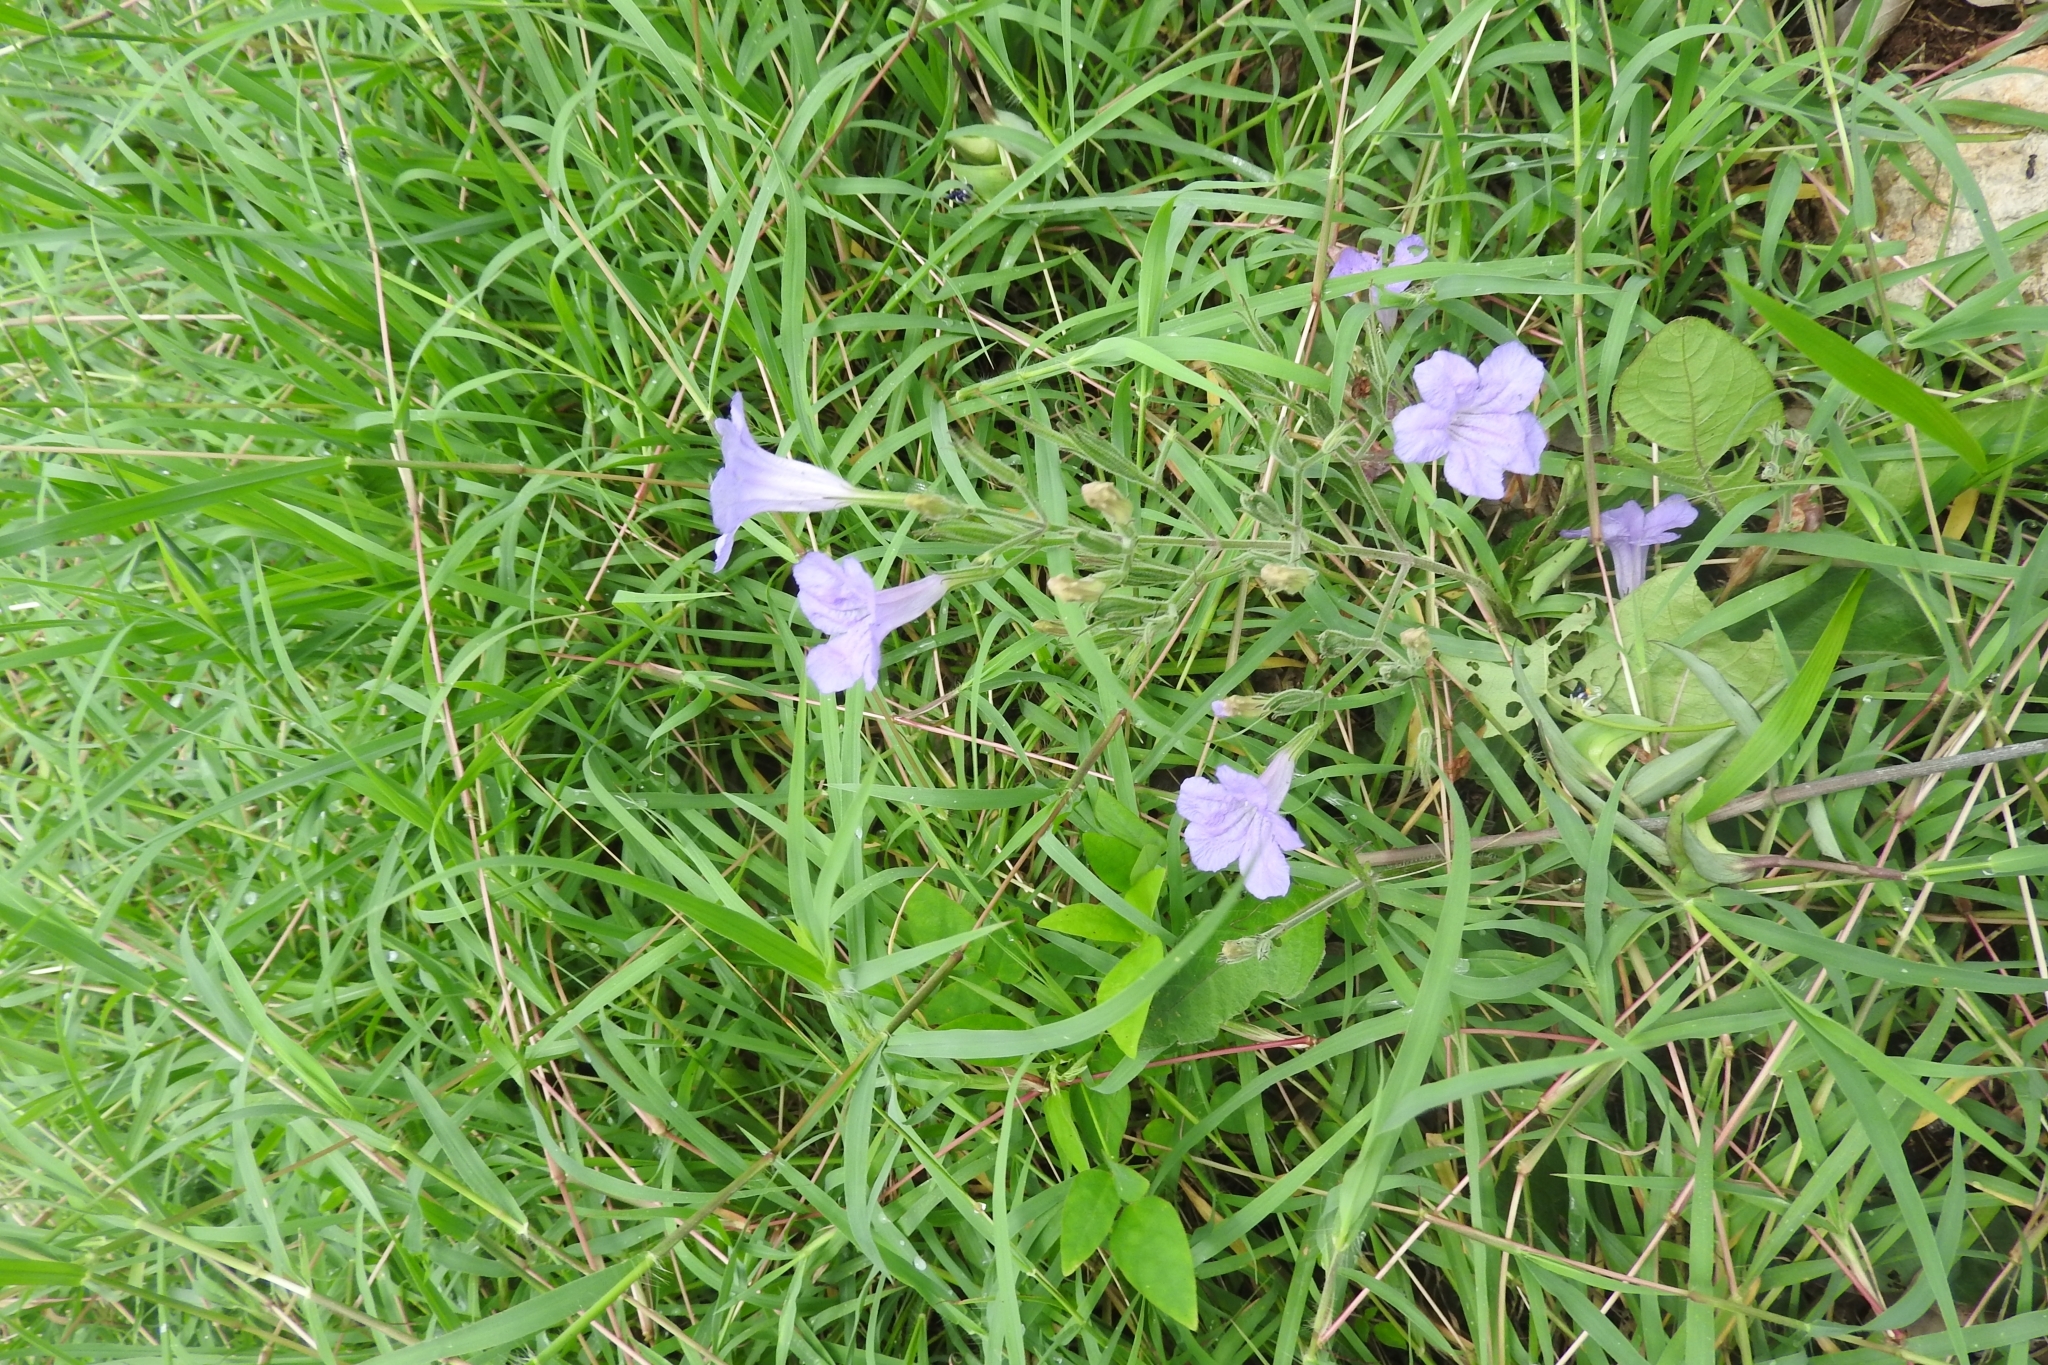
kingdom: Plantae
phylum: Tracheophyta
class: Magnoliopsida
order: Lamiales
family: Acanthaceae
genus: Ruellia
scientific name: Ruellia ciliatiflora
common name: Hairyflower wild petunia
